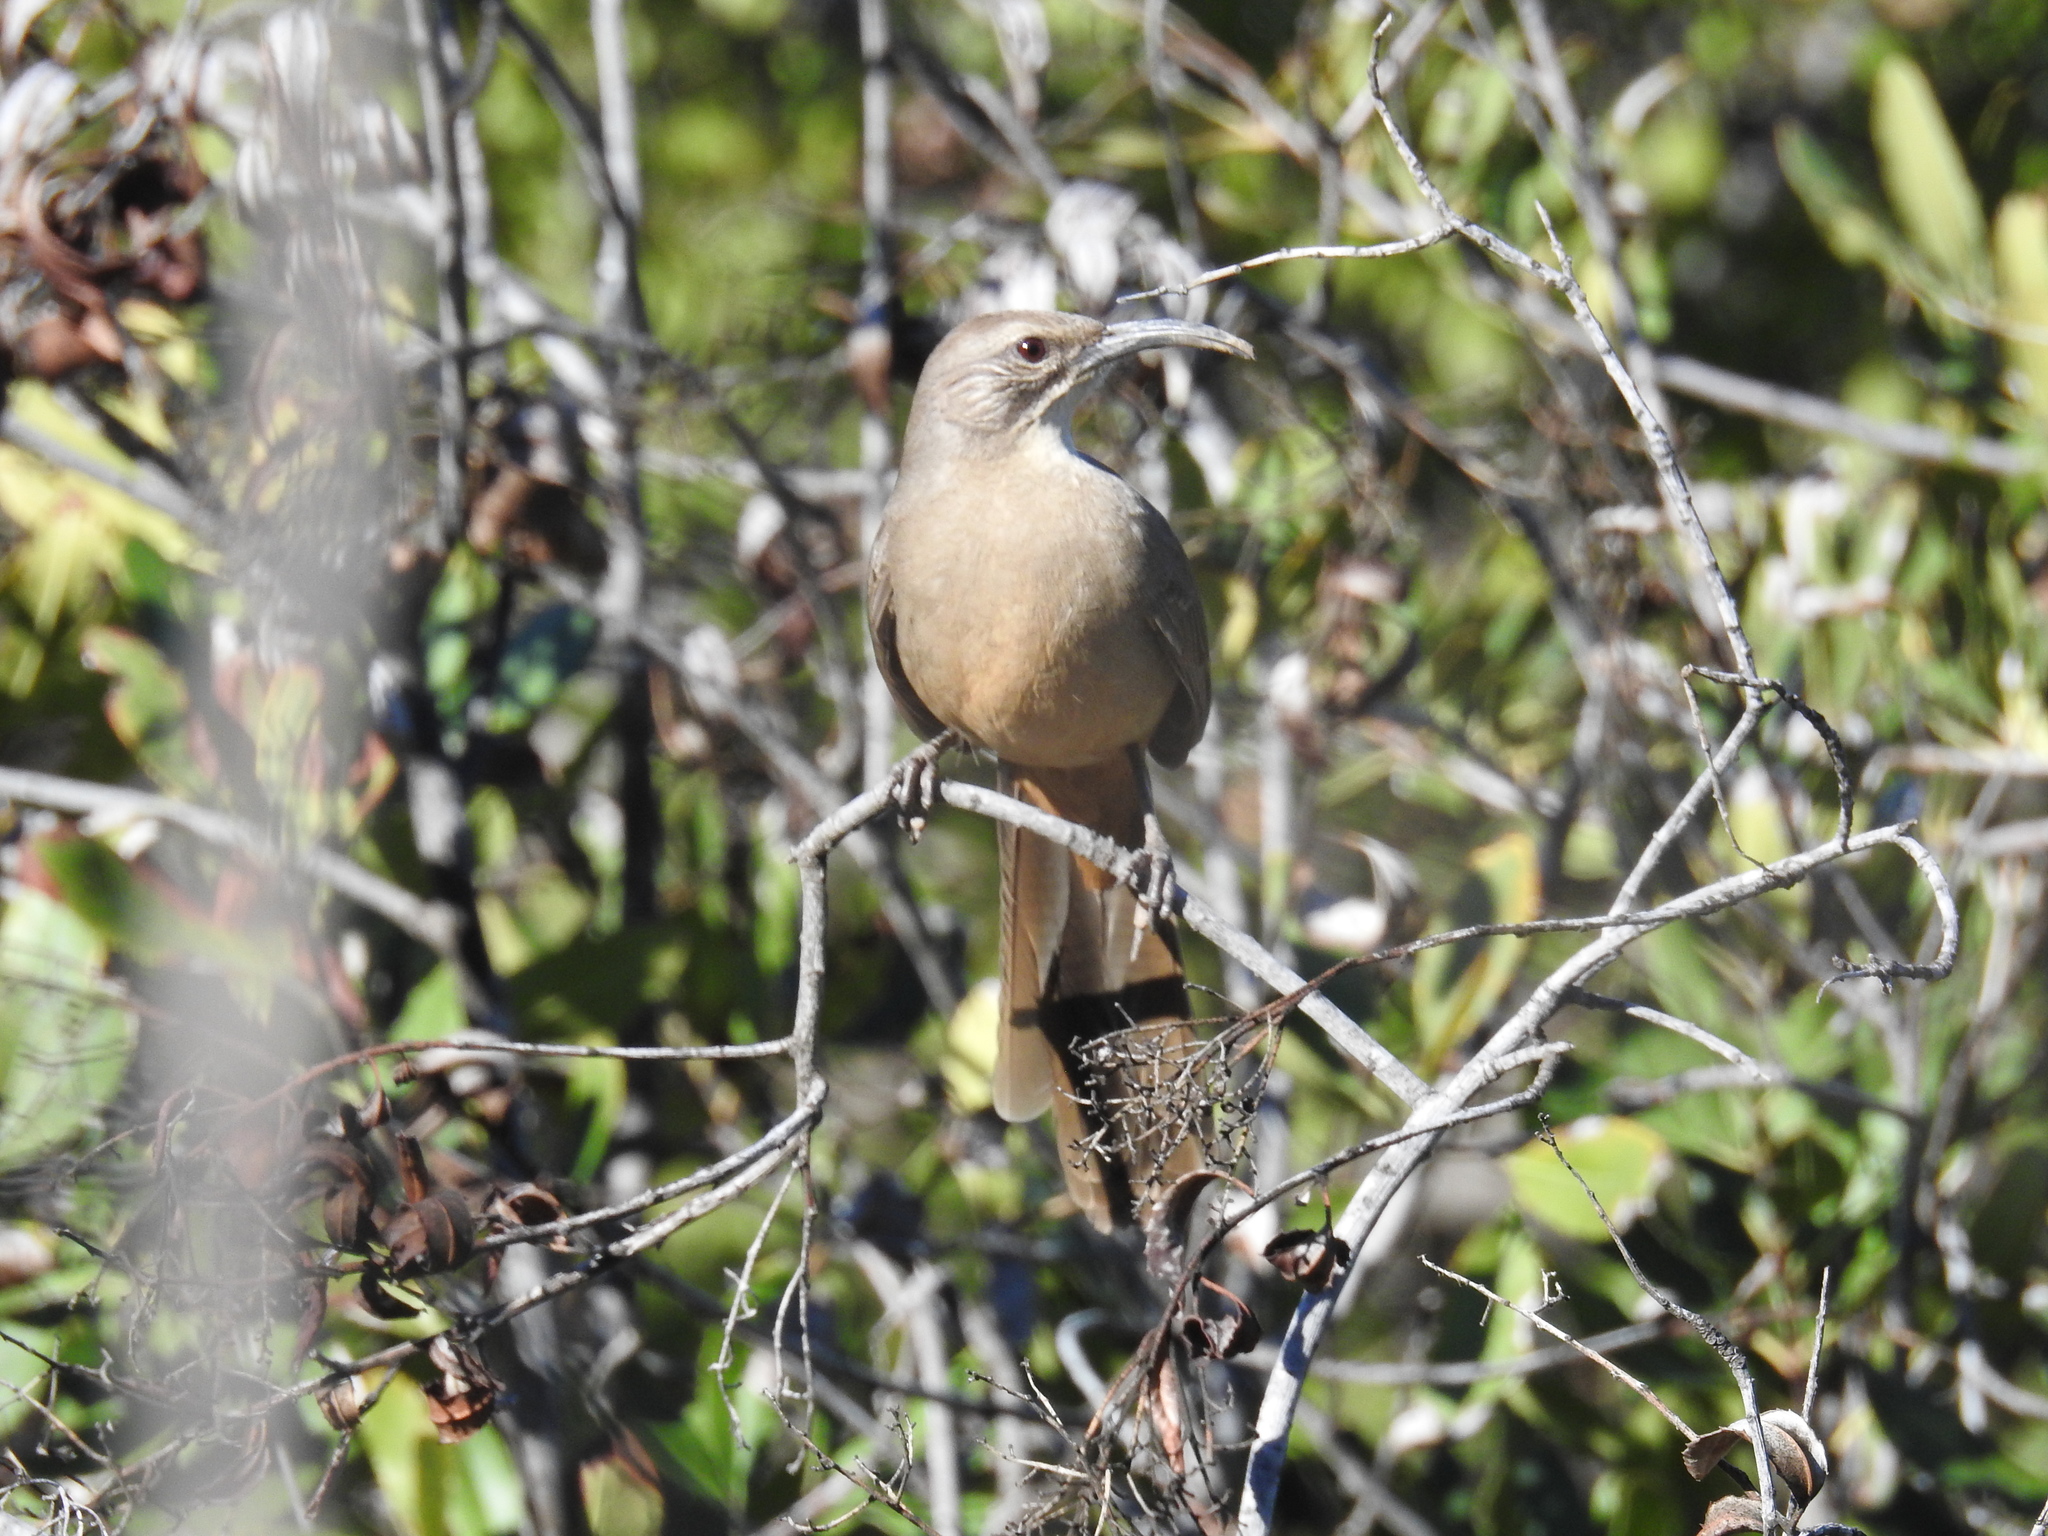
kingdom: Animalia
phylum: Chordata
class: Aves
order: Passeriformes
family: Mimidae
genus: Toxostoma
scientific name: Toxostoma redivivum
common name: California thrasher
